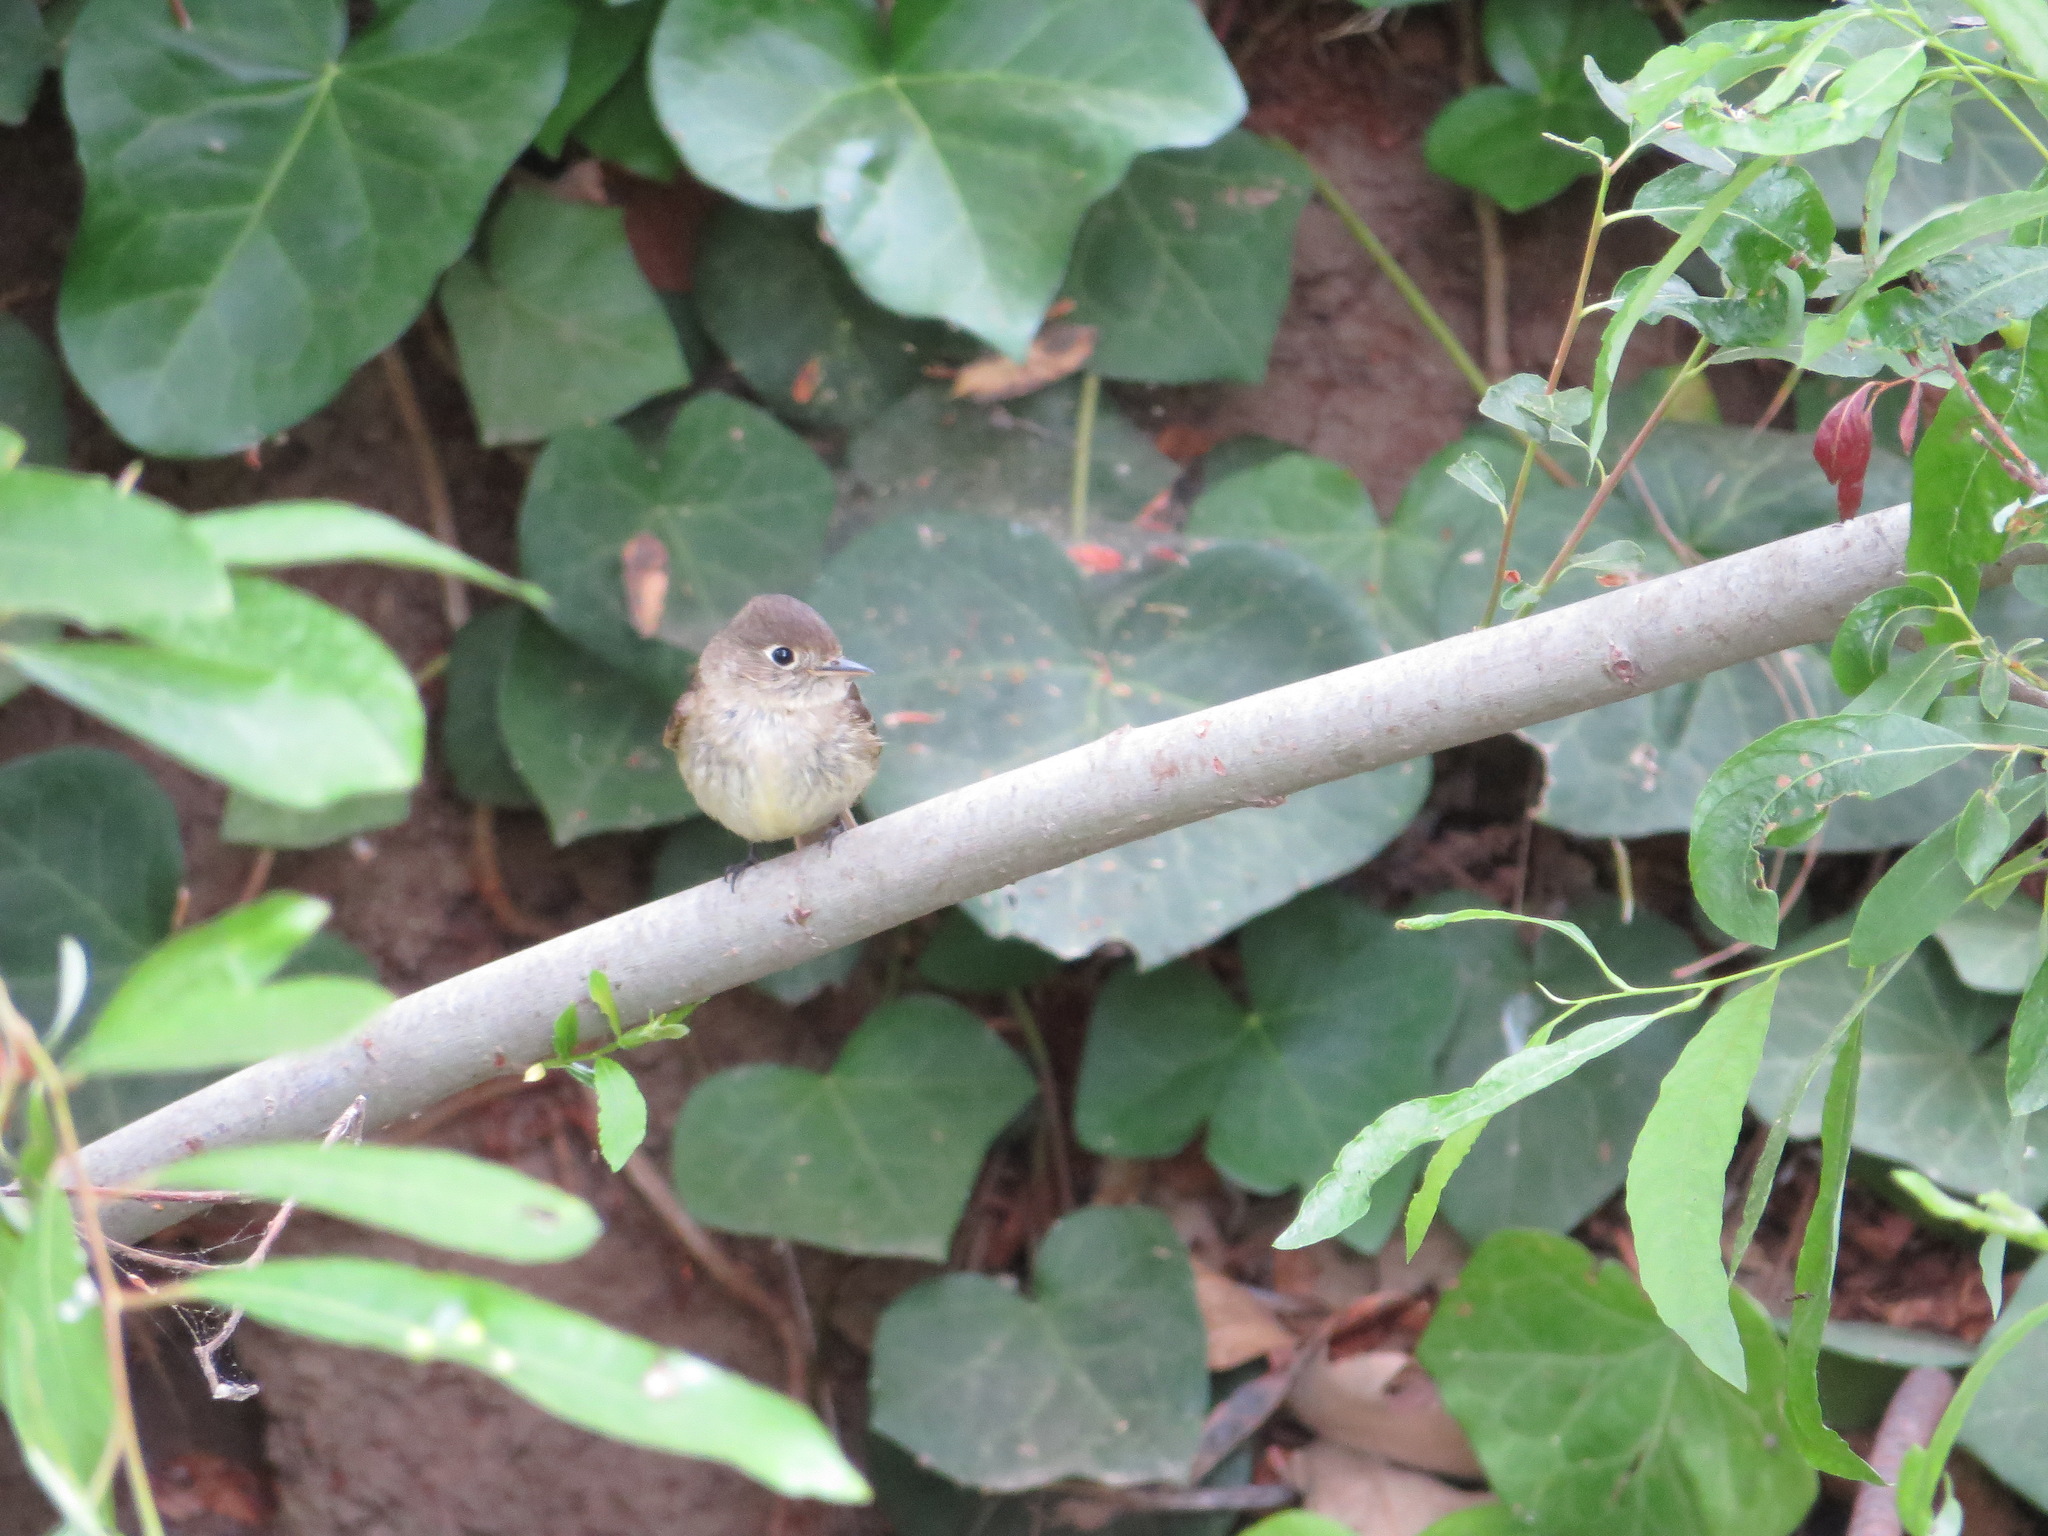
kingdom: Animalia
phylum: Chordata
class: Aves
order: Passeriformes
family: Tyrannidae
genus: Empidonax
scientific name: Empidonax difficilis
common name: Pacific-slope flycatcher
